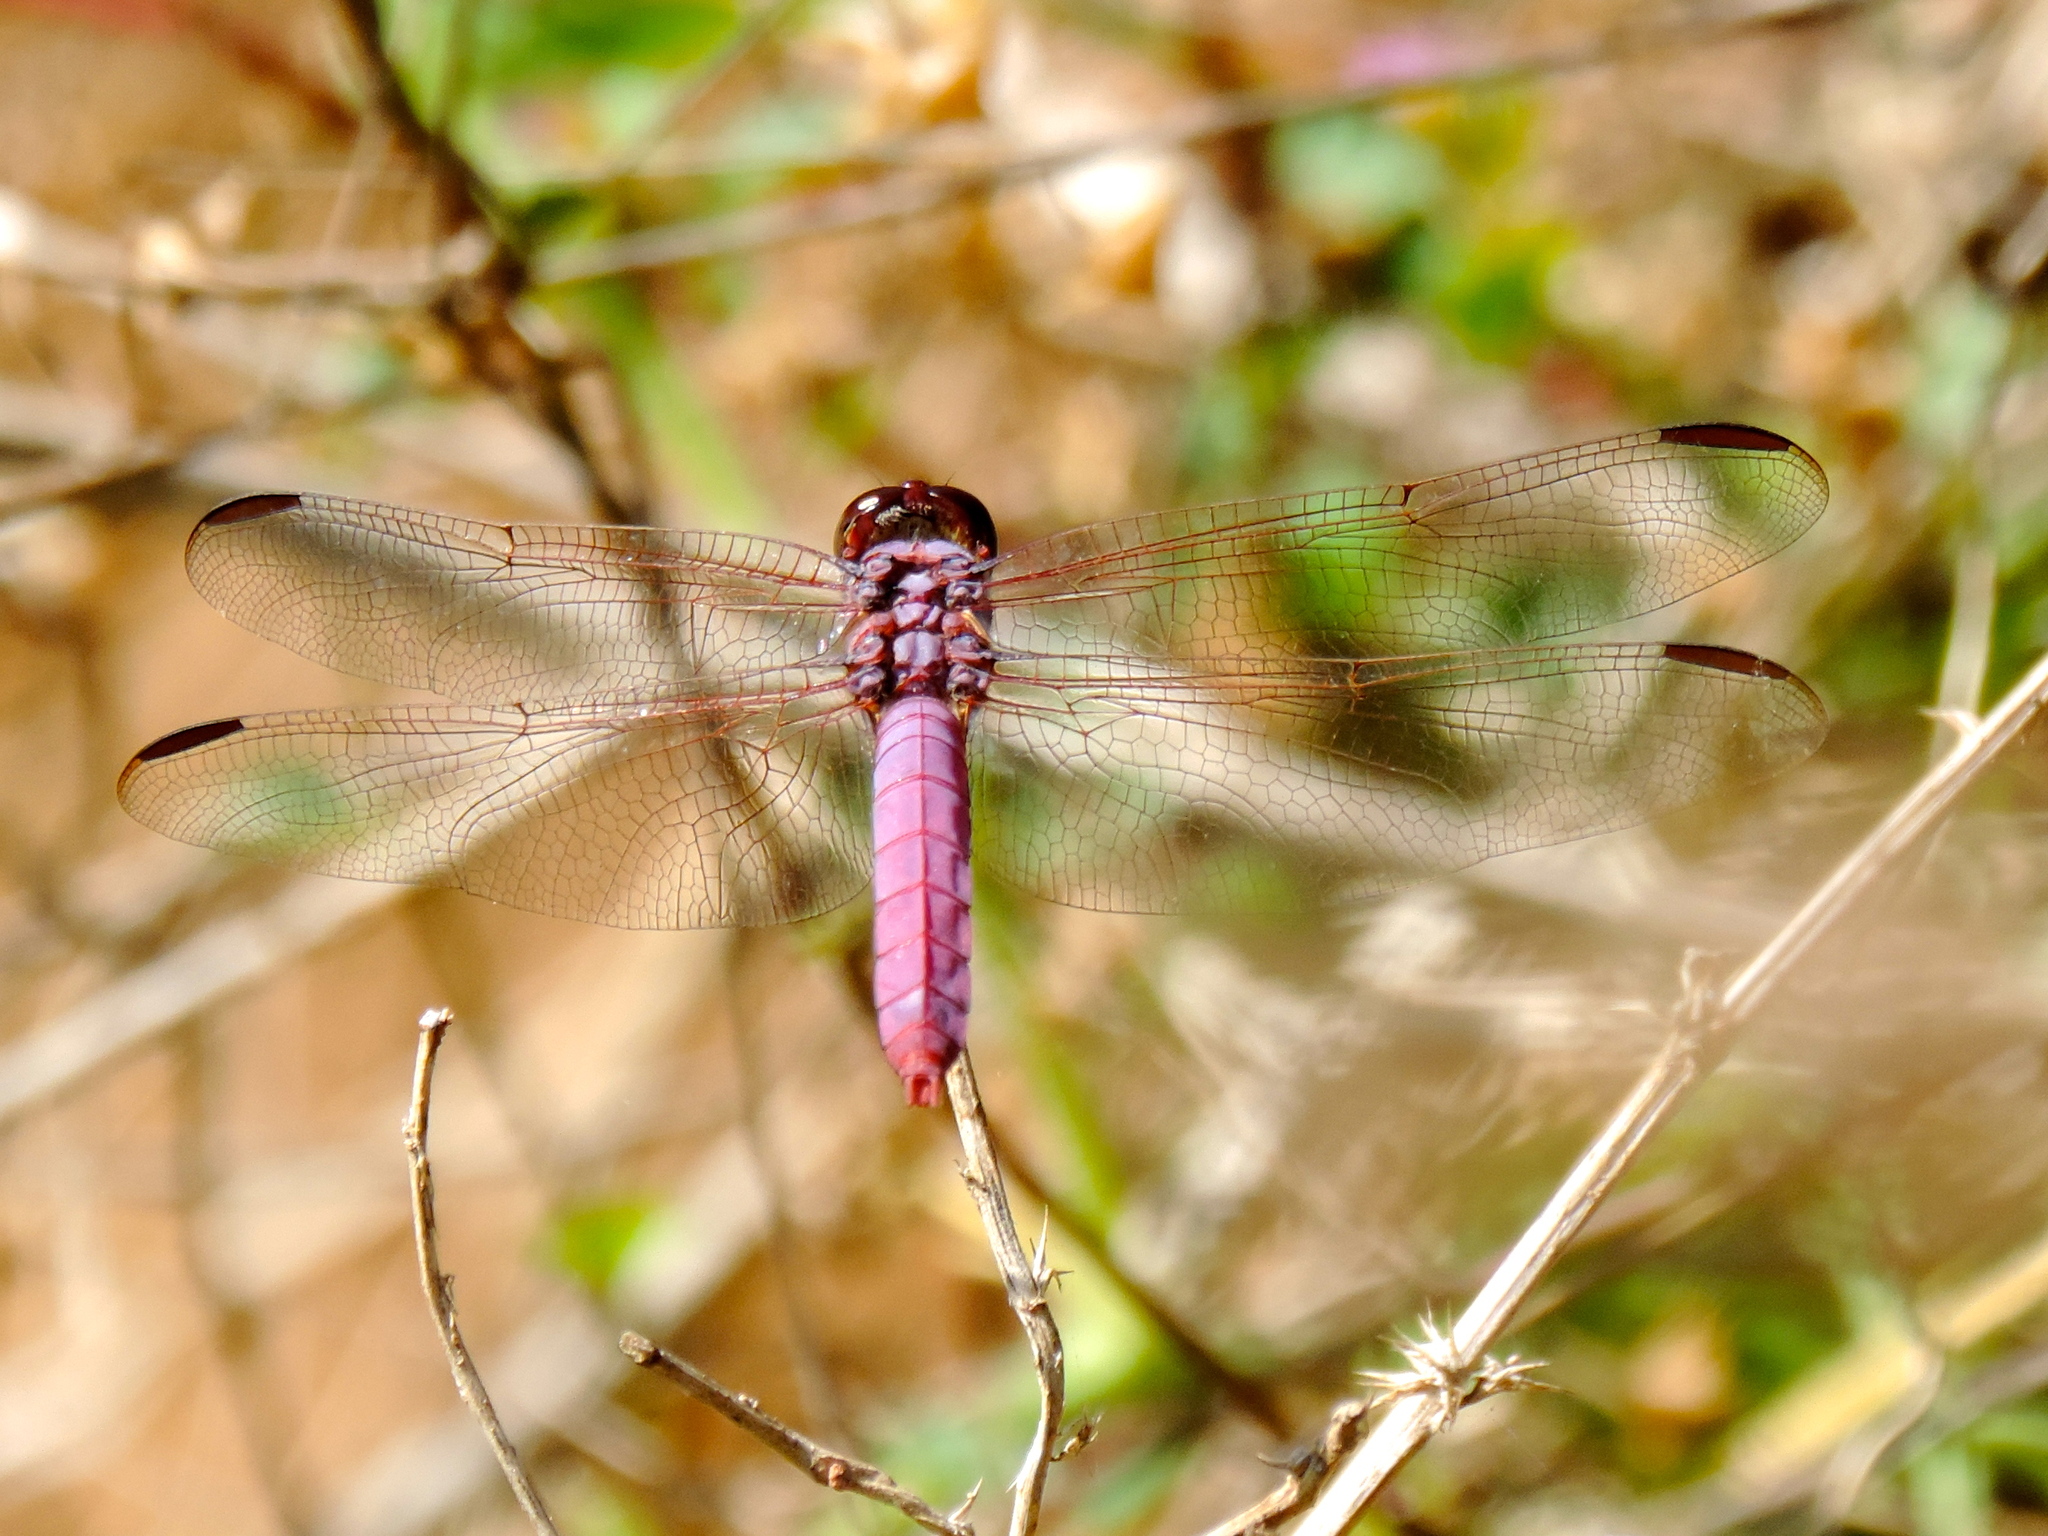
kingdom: Animalia
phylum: Arthropoda
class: Insecta
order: Odonata
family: Libellulidae
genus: Orthemis
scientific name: Orthemis ferruginea
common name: Roseate skimmer
